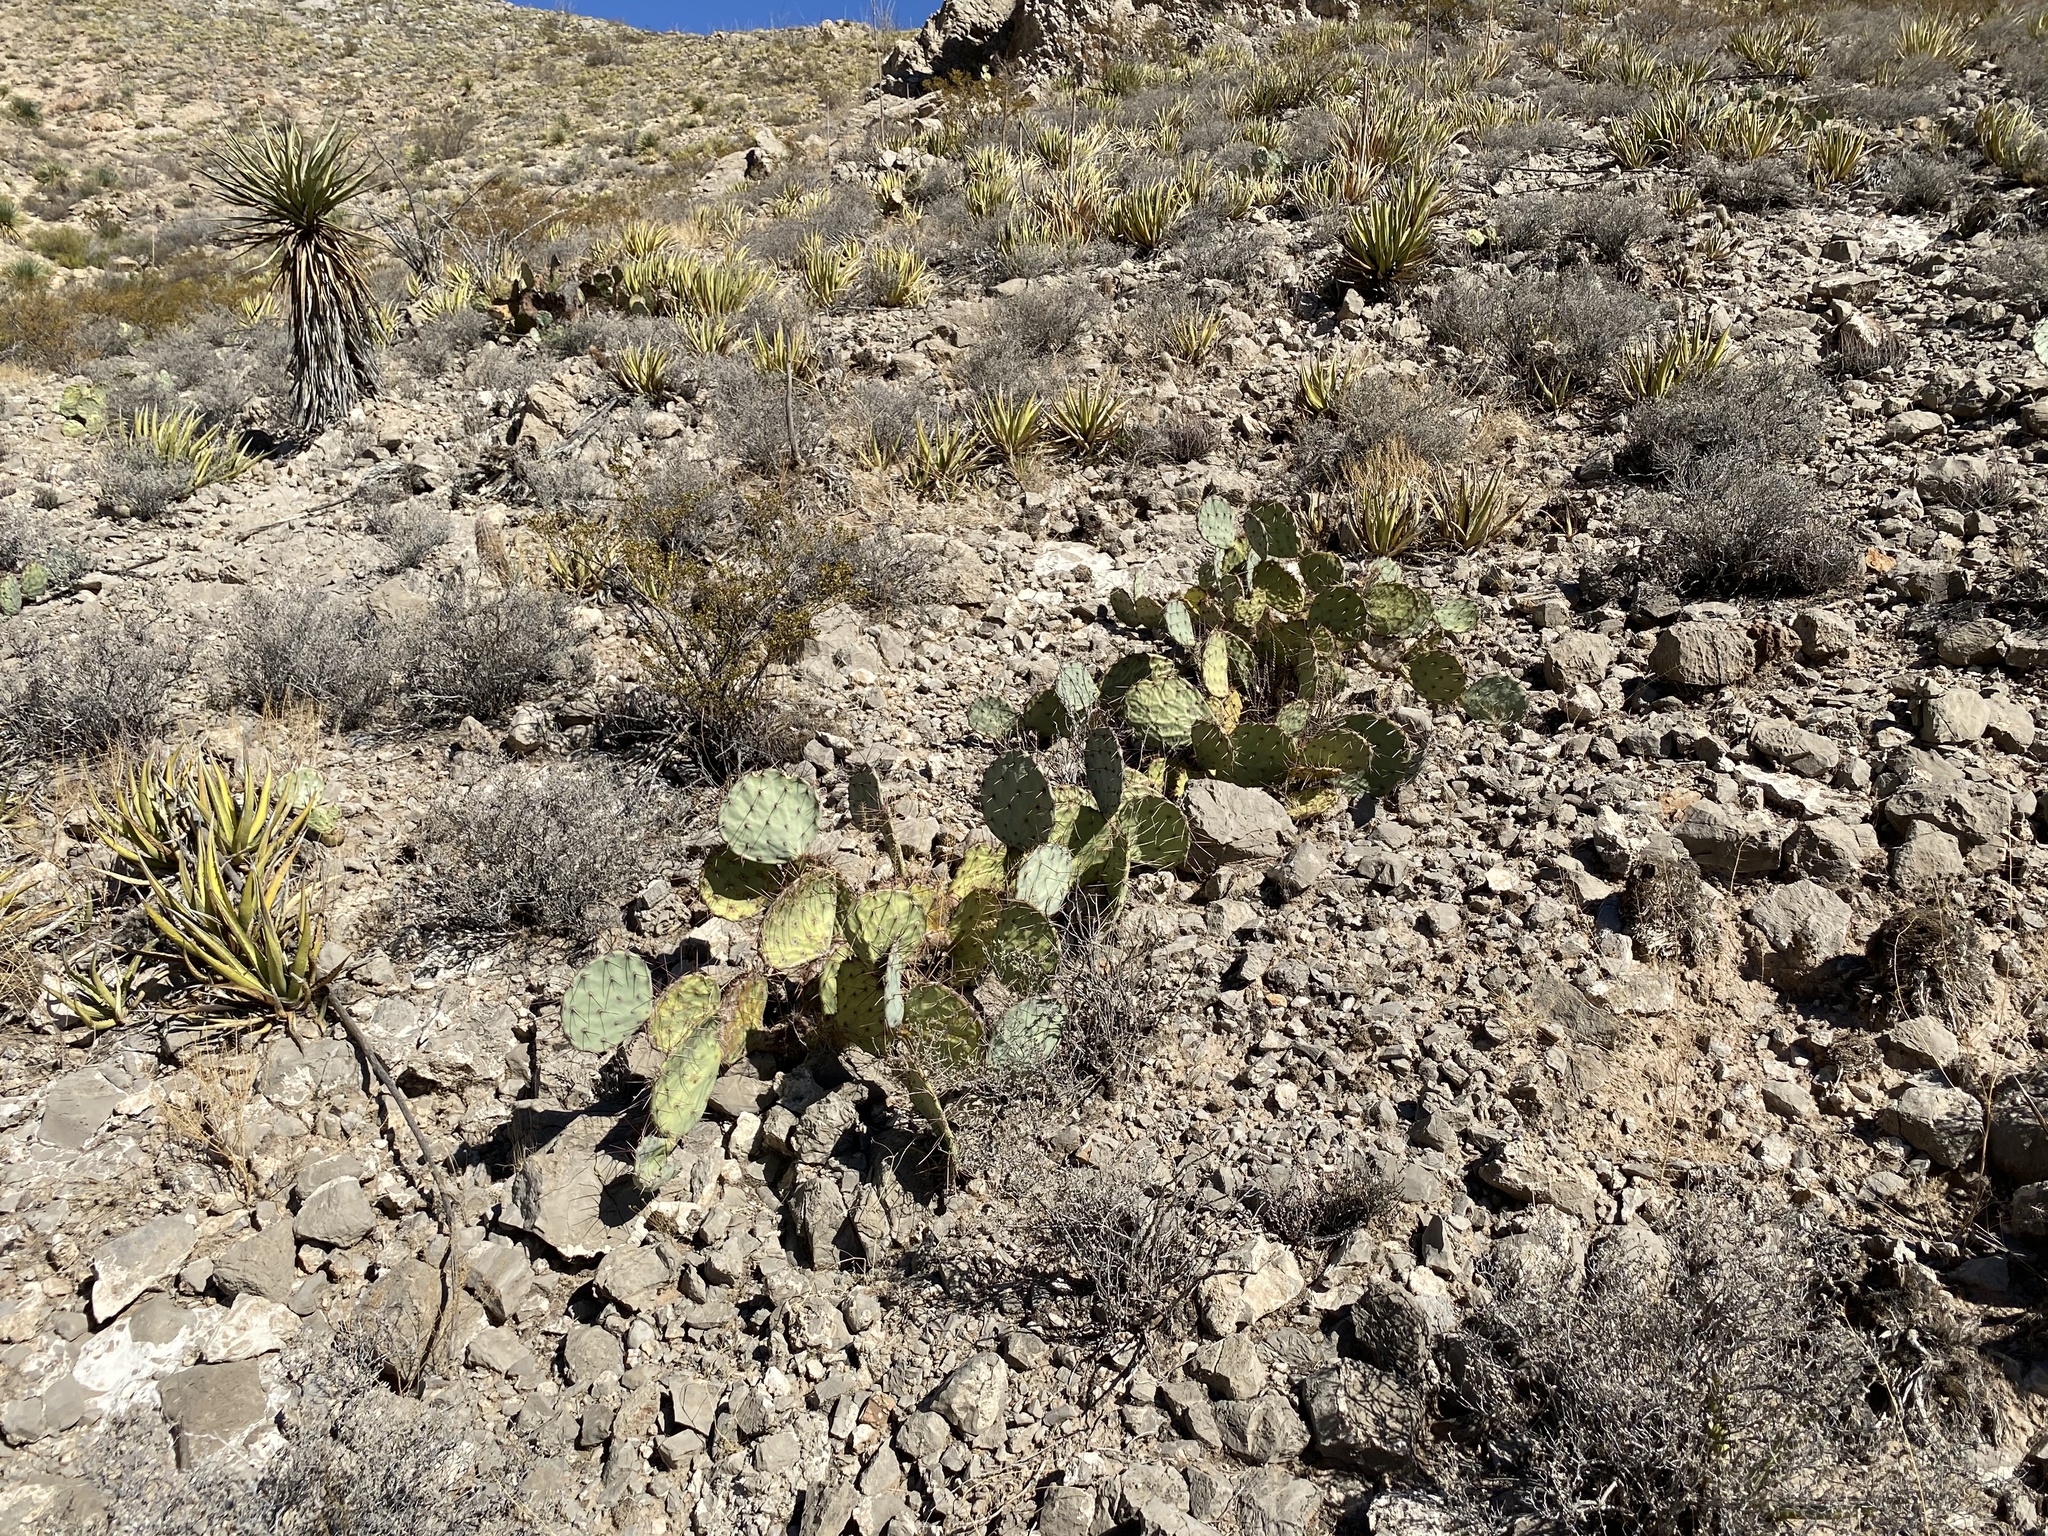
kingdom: Plantae
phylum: Tracheophyta
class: Magnoliopsida
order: Caryophyllales
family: Cactaceae
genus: Opuntia
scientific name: Opuntia engelmannii
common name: Cactus-apple
